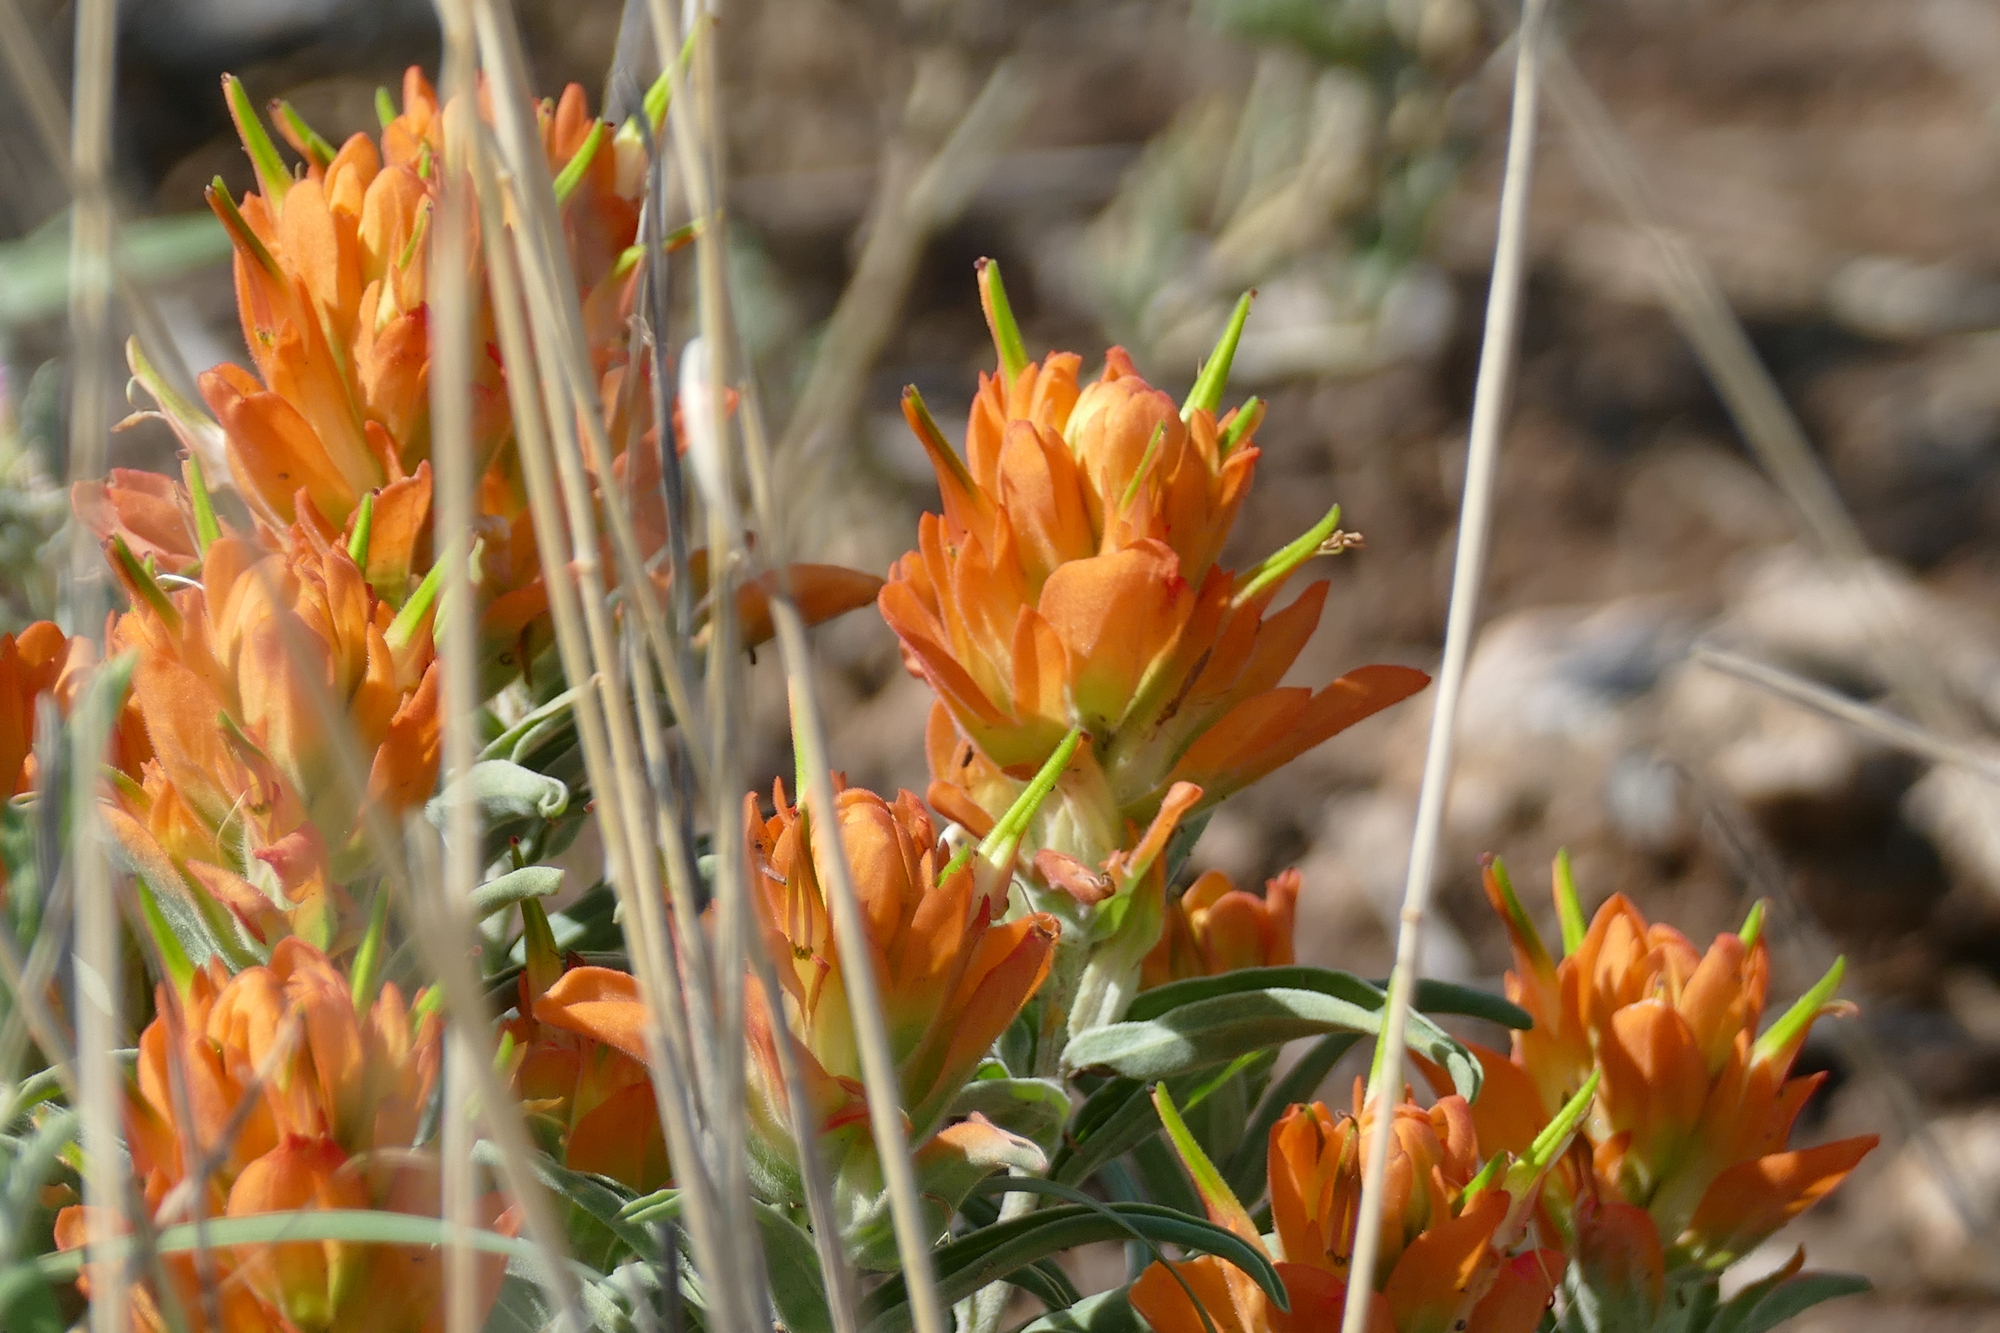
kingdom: Plantae
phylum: Tracheophyta
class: Magnoliopsida
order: Lamiales
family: Orobanchaceae
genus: Castilleja
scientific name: Castilleja integra
